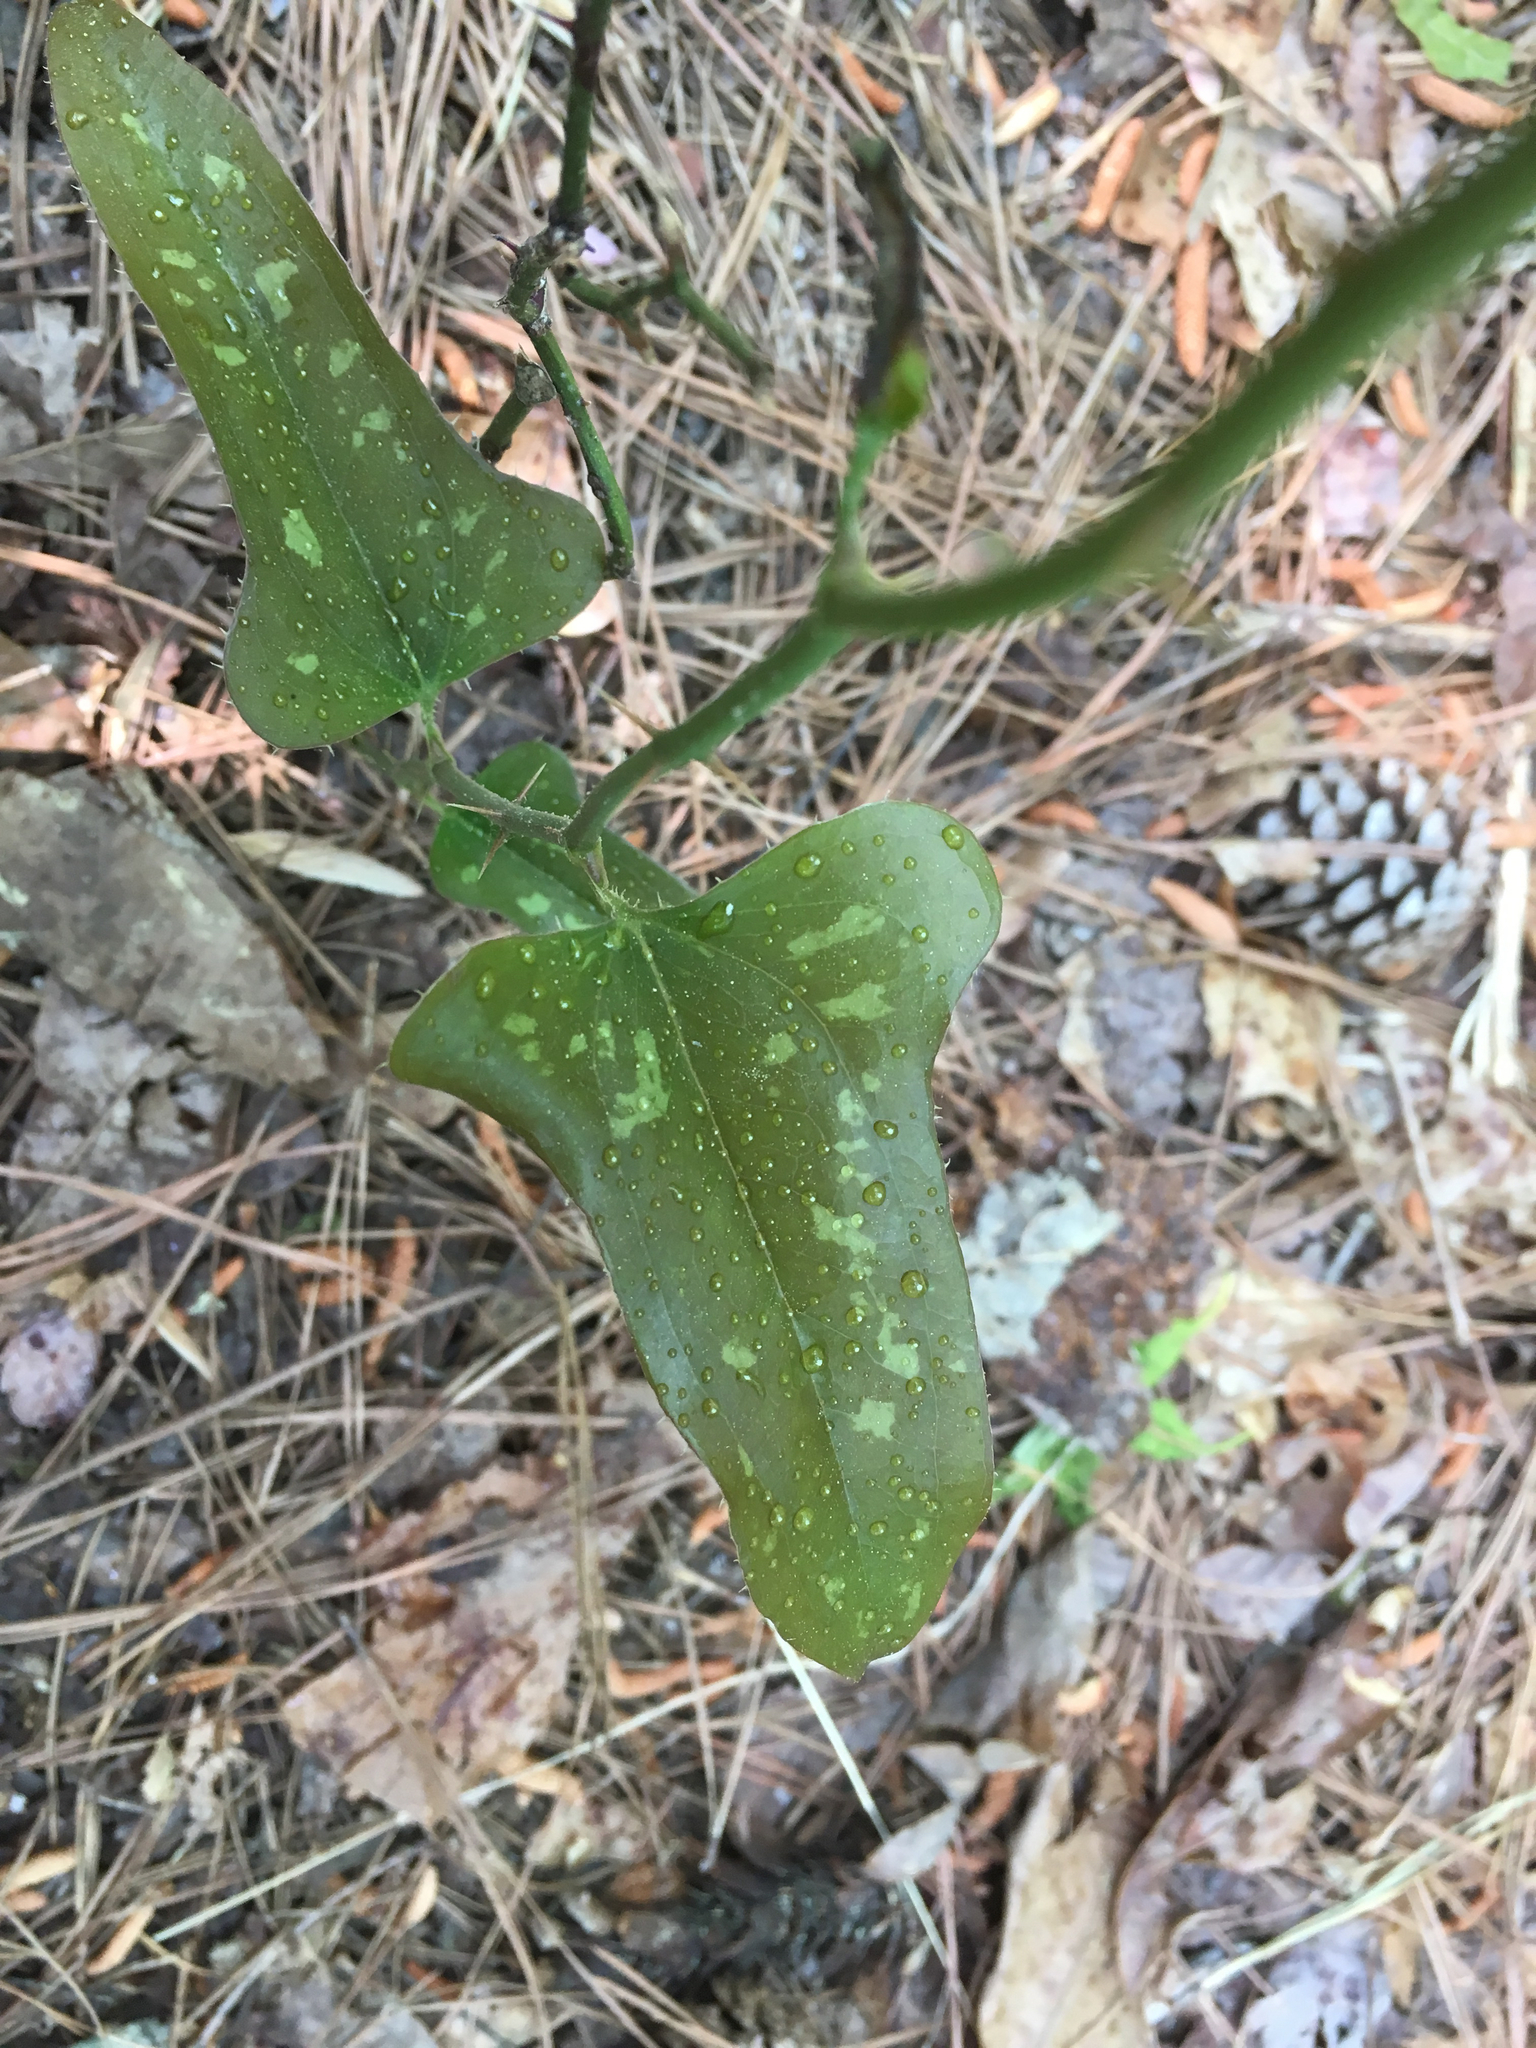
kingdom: Plantae
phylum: Tracheophyta
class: Liliopsida
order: Liliales
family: Smilacaceae
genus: Smilax
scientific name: Smilax bona-nox
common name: Catbrier
